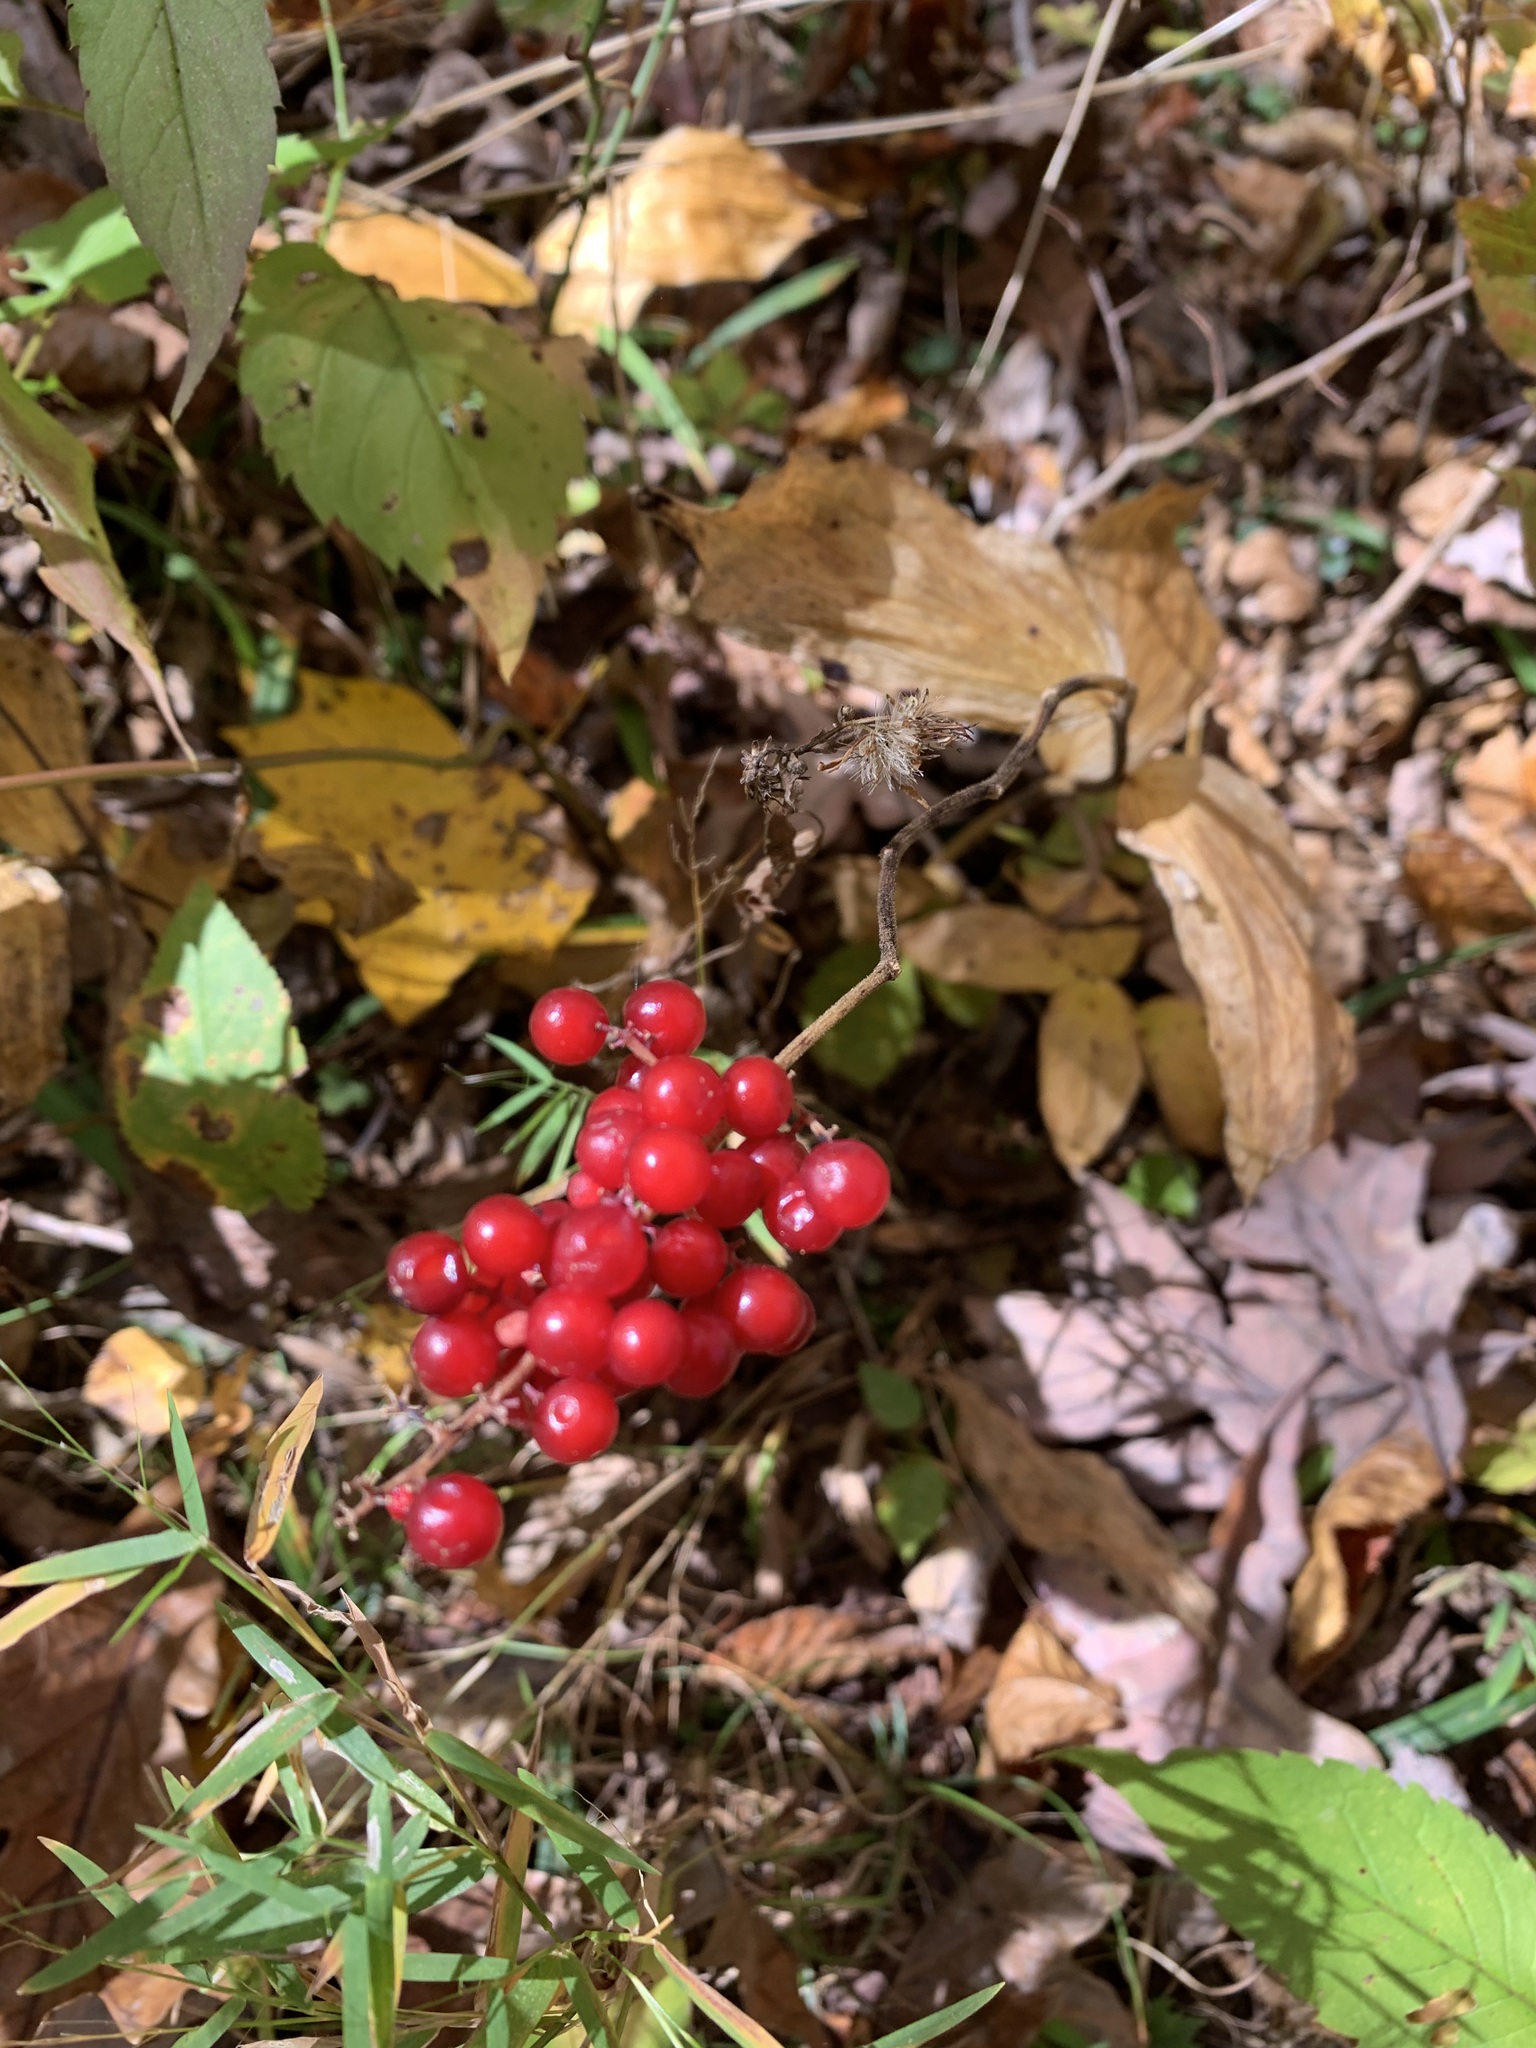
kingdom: Plantae
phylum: Tracheophyta
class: Liliopsida
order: Asparagales
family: Asparagaceae
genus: Maianthemum
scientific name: Maianthemum racemosum
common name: False spikenard
